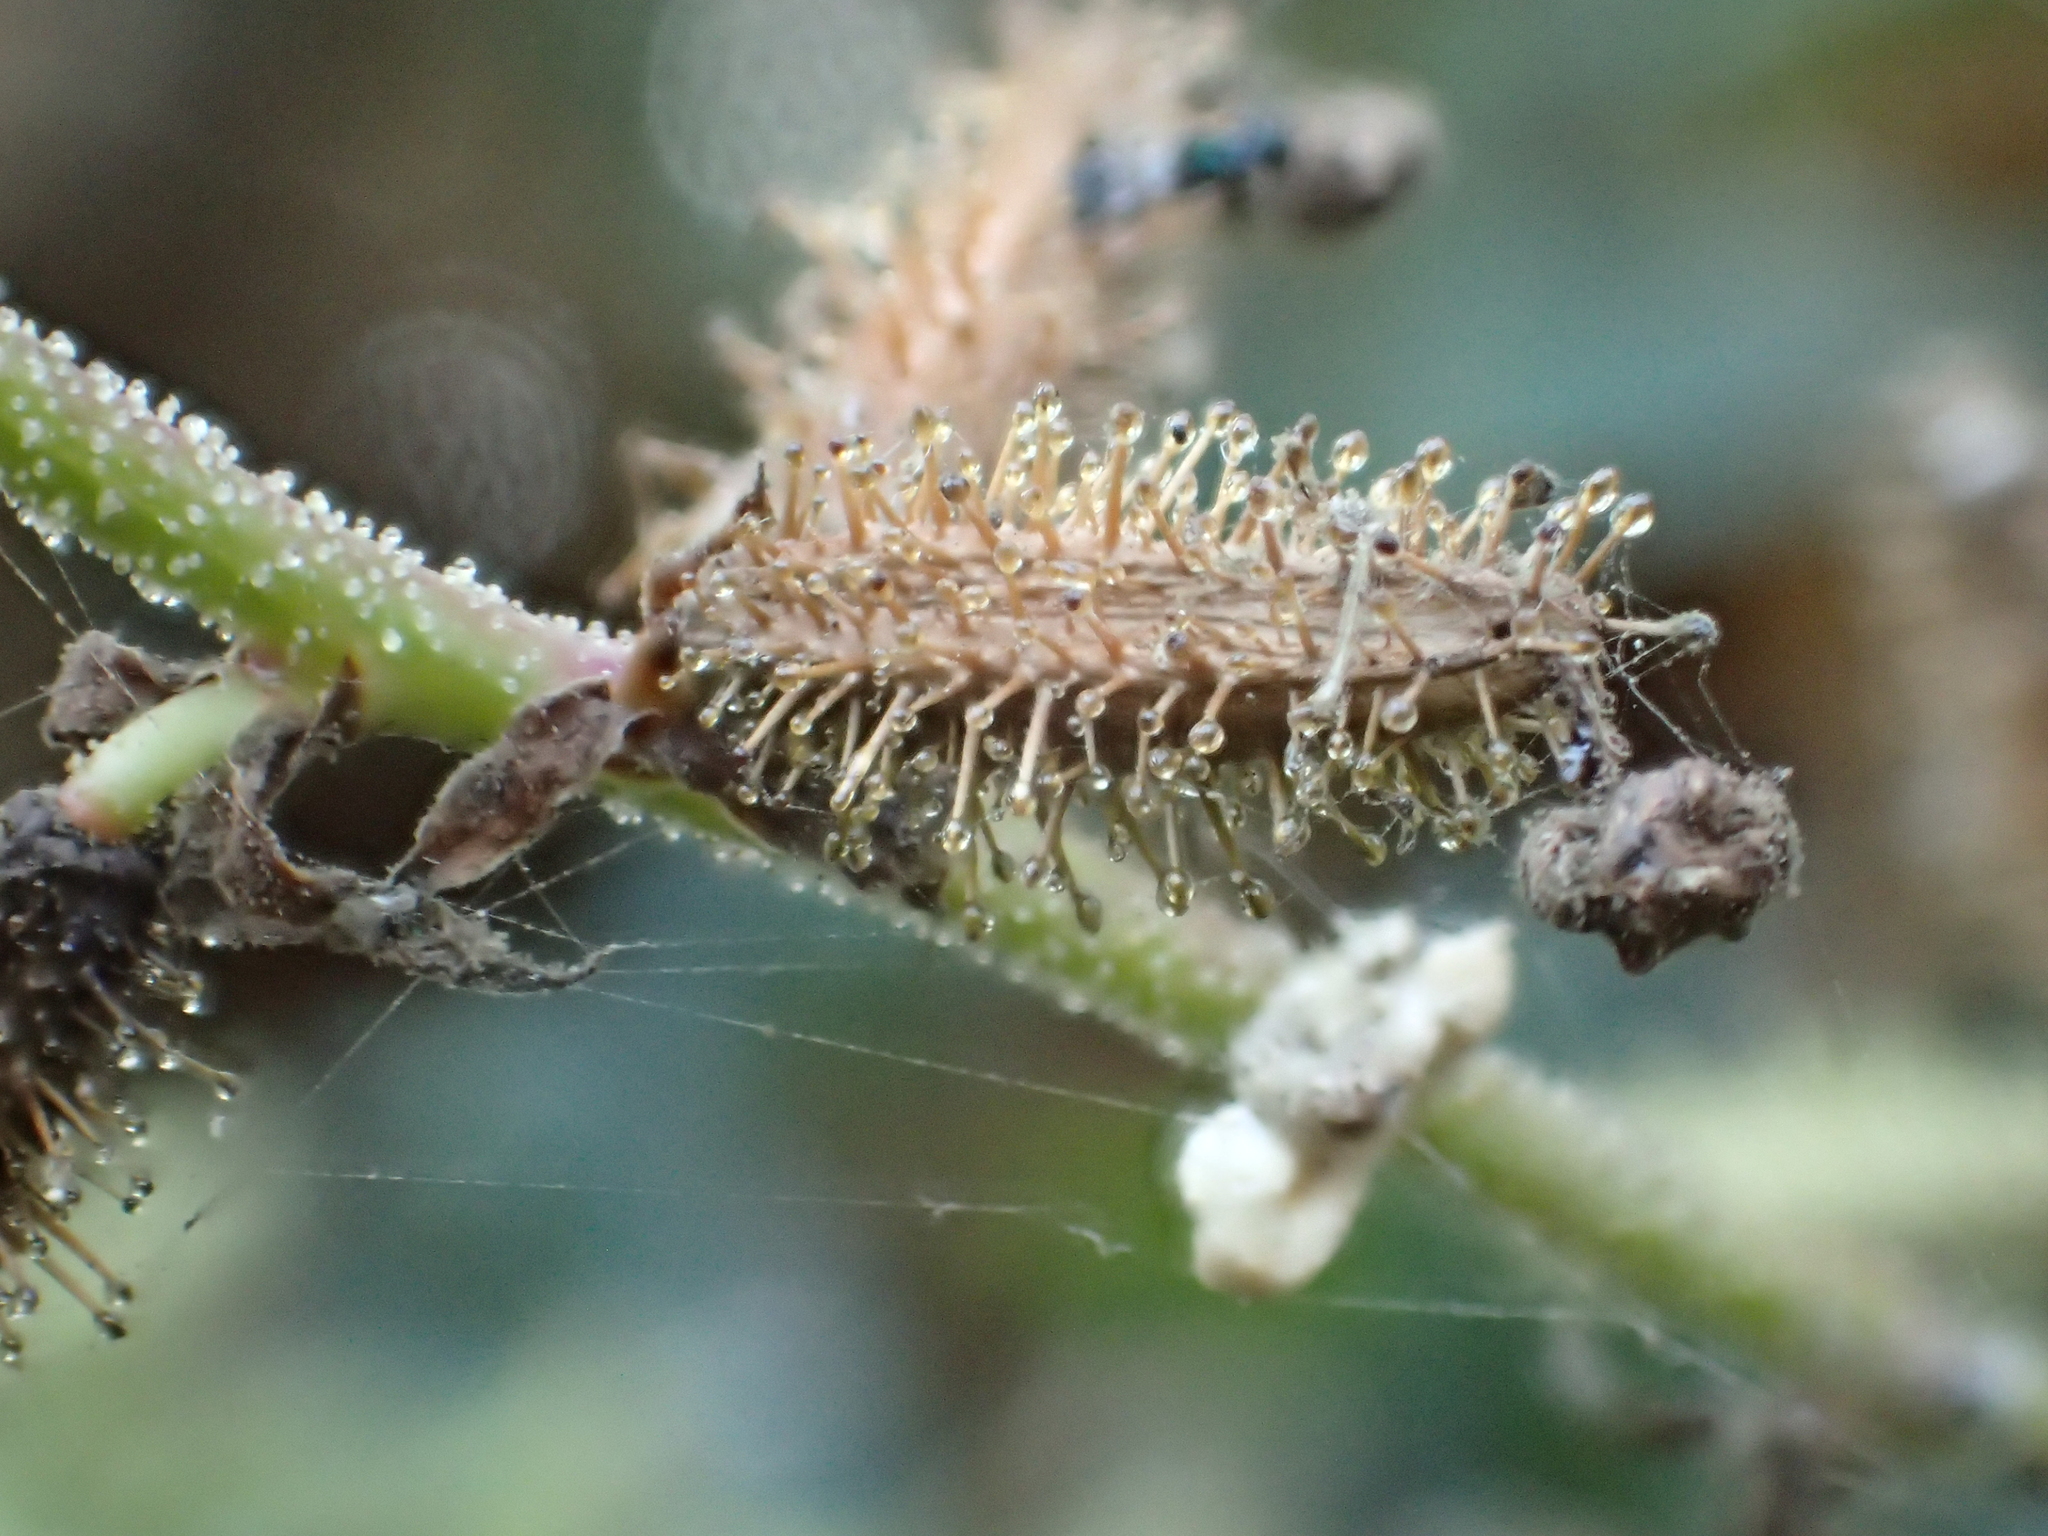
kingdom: Plantae
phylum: Tracheophyta
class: Magnoliopsida
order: Caryophyllales
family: Plumbaginaceae
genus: Plumbago
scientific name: Plumbago zeylanica
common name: Doctorbush
